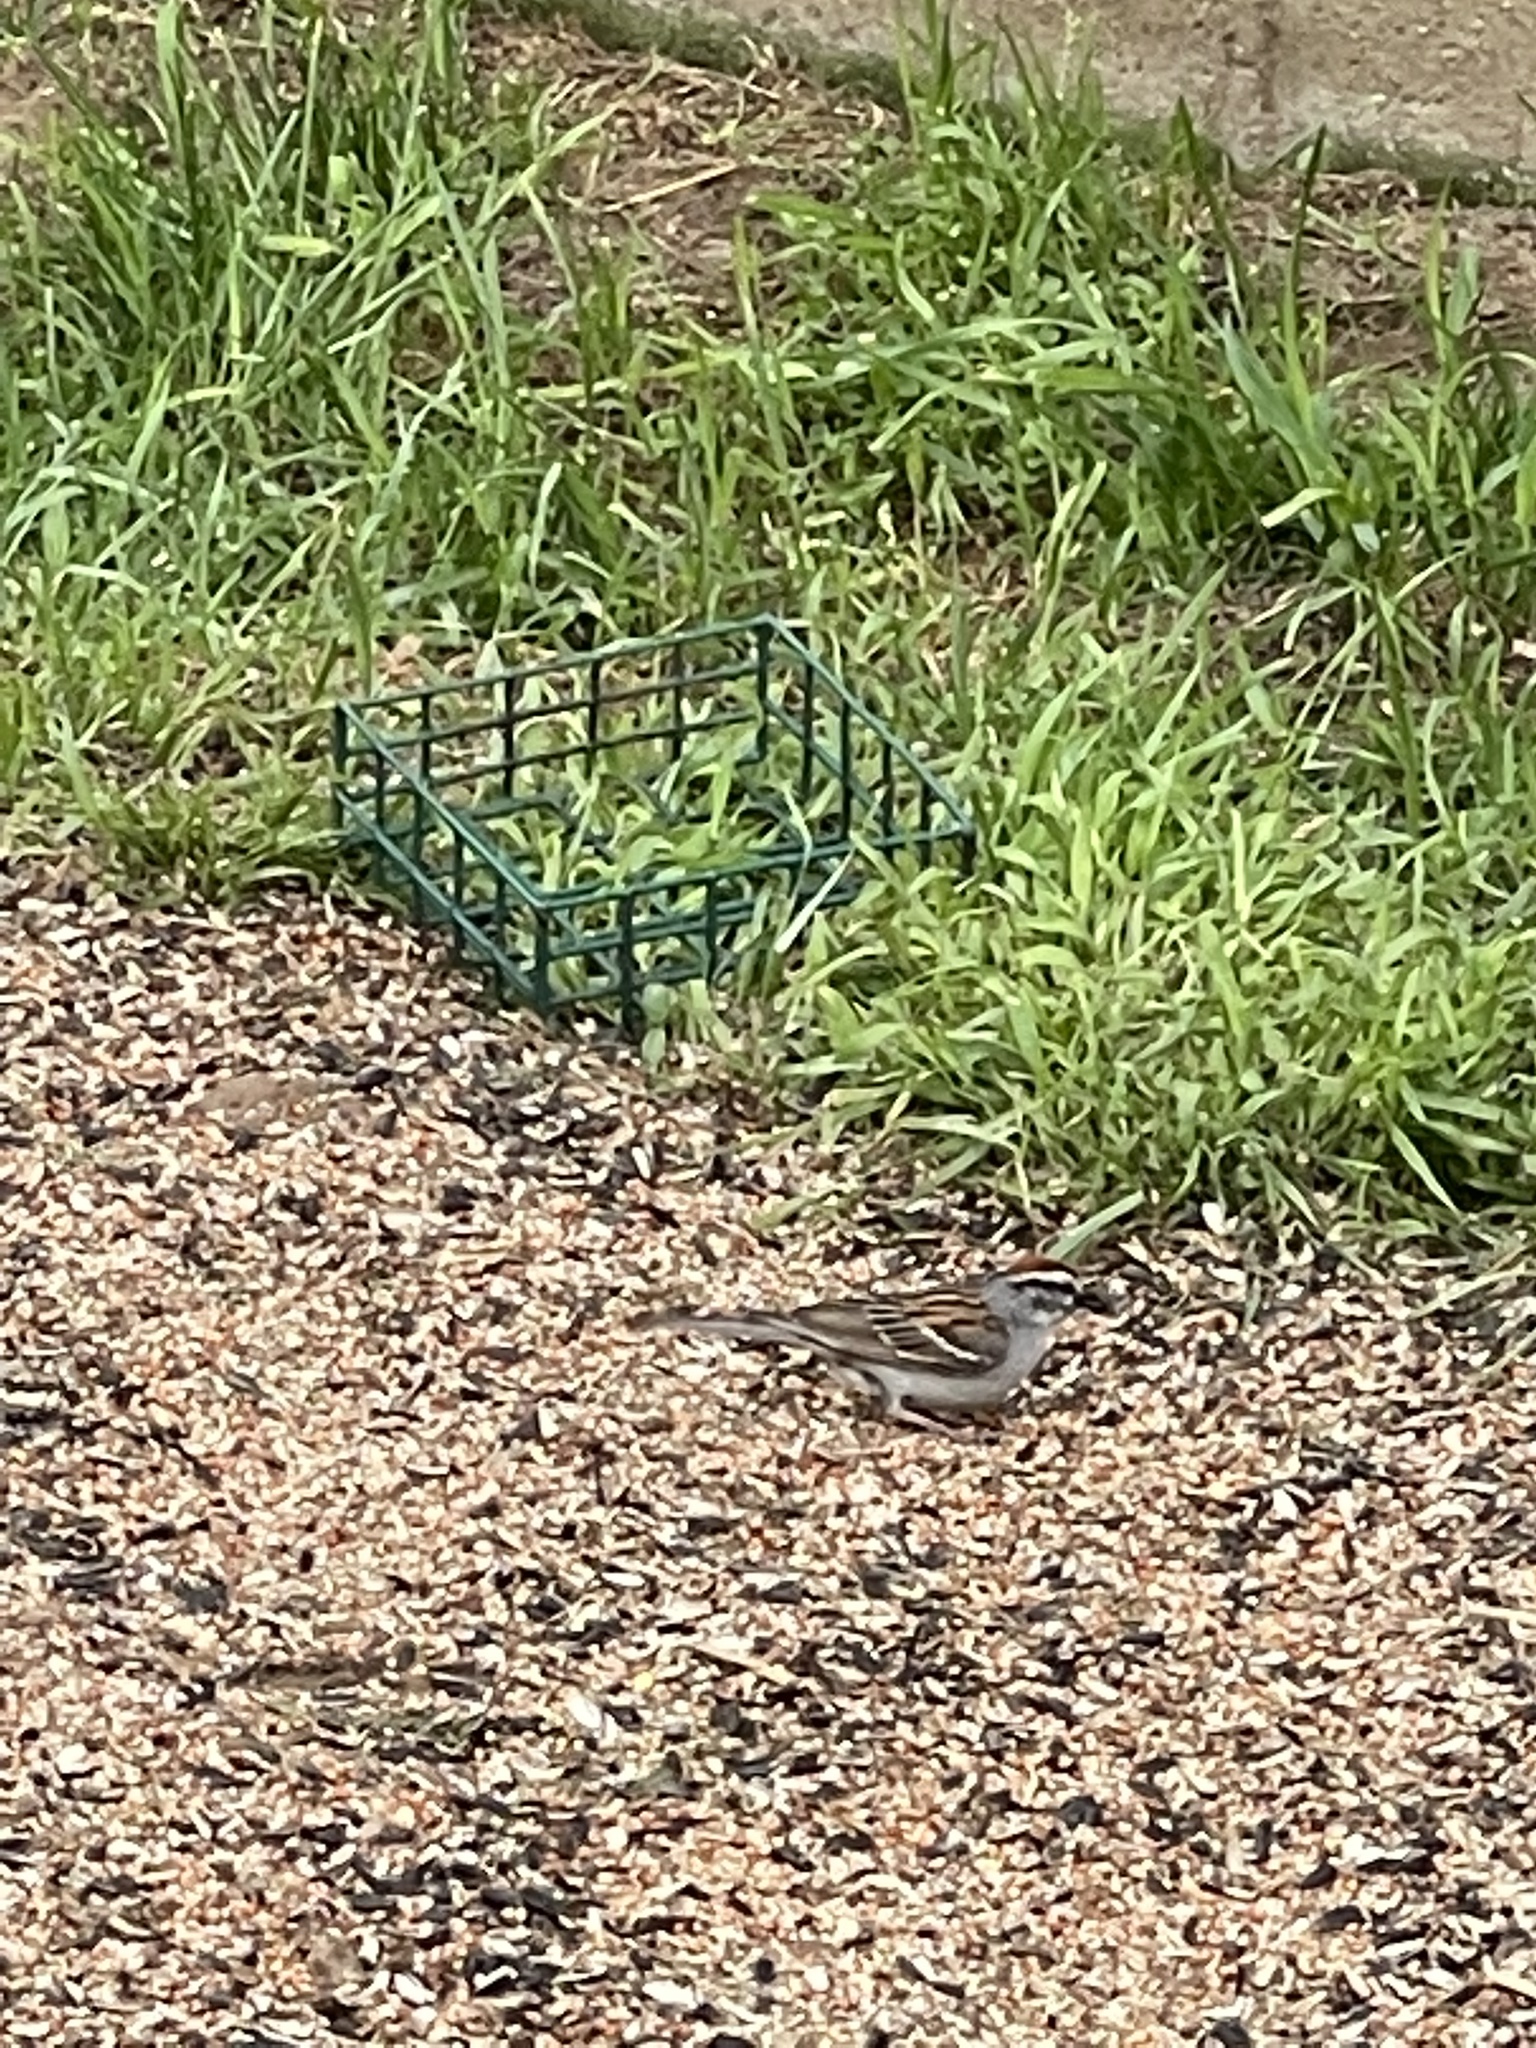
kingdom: Animalia
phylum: Chordata
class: Aves
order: Passeriformes
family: Passerellidae
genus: Spizella
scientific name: Spizella passerina
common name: Chipping sparrow
